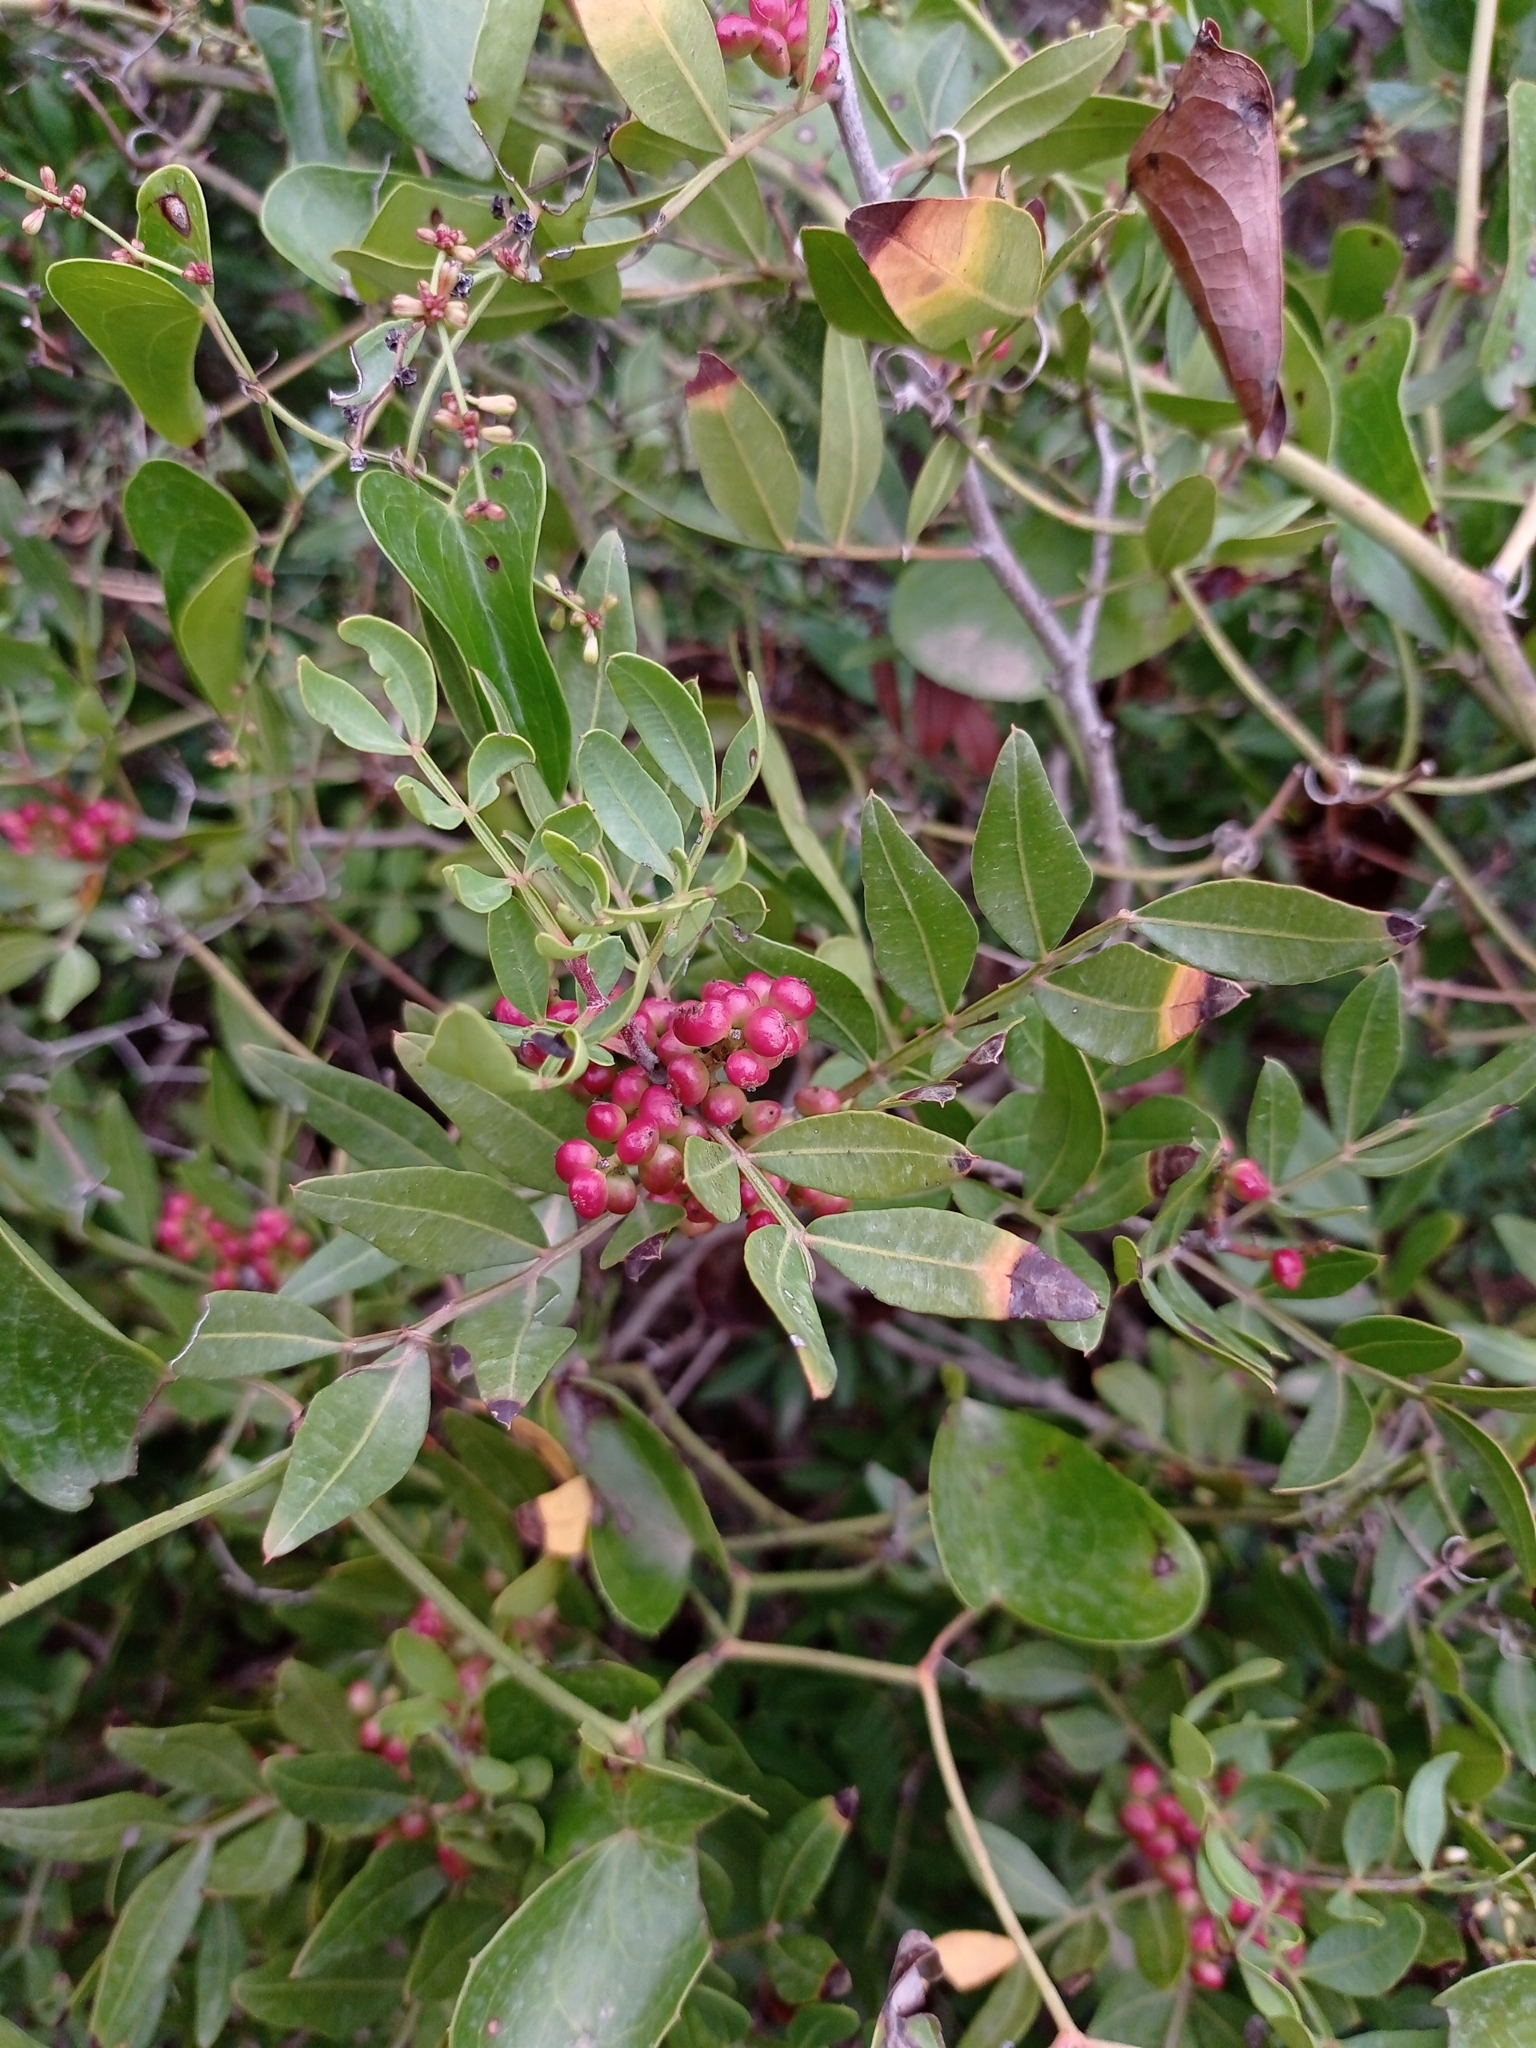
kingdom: Plantae
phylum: Tracheophyta
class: Magnoliopsida
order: Sapindales
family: Anacardiaceae
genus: Pistacia
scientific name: Pistacia lentiscus
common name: Lentisk
